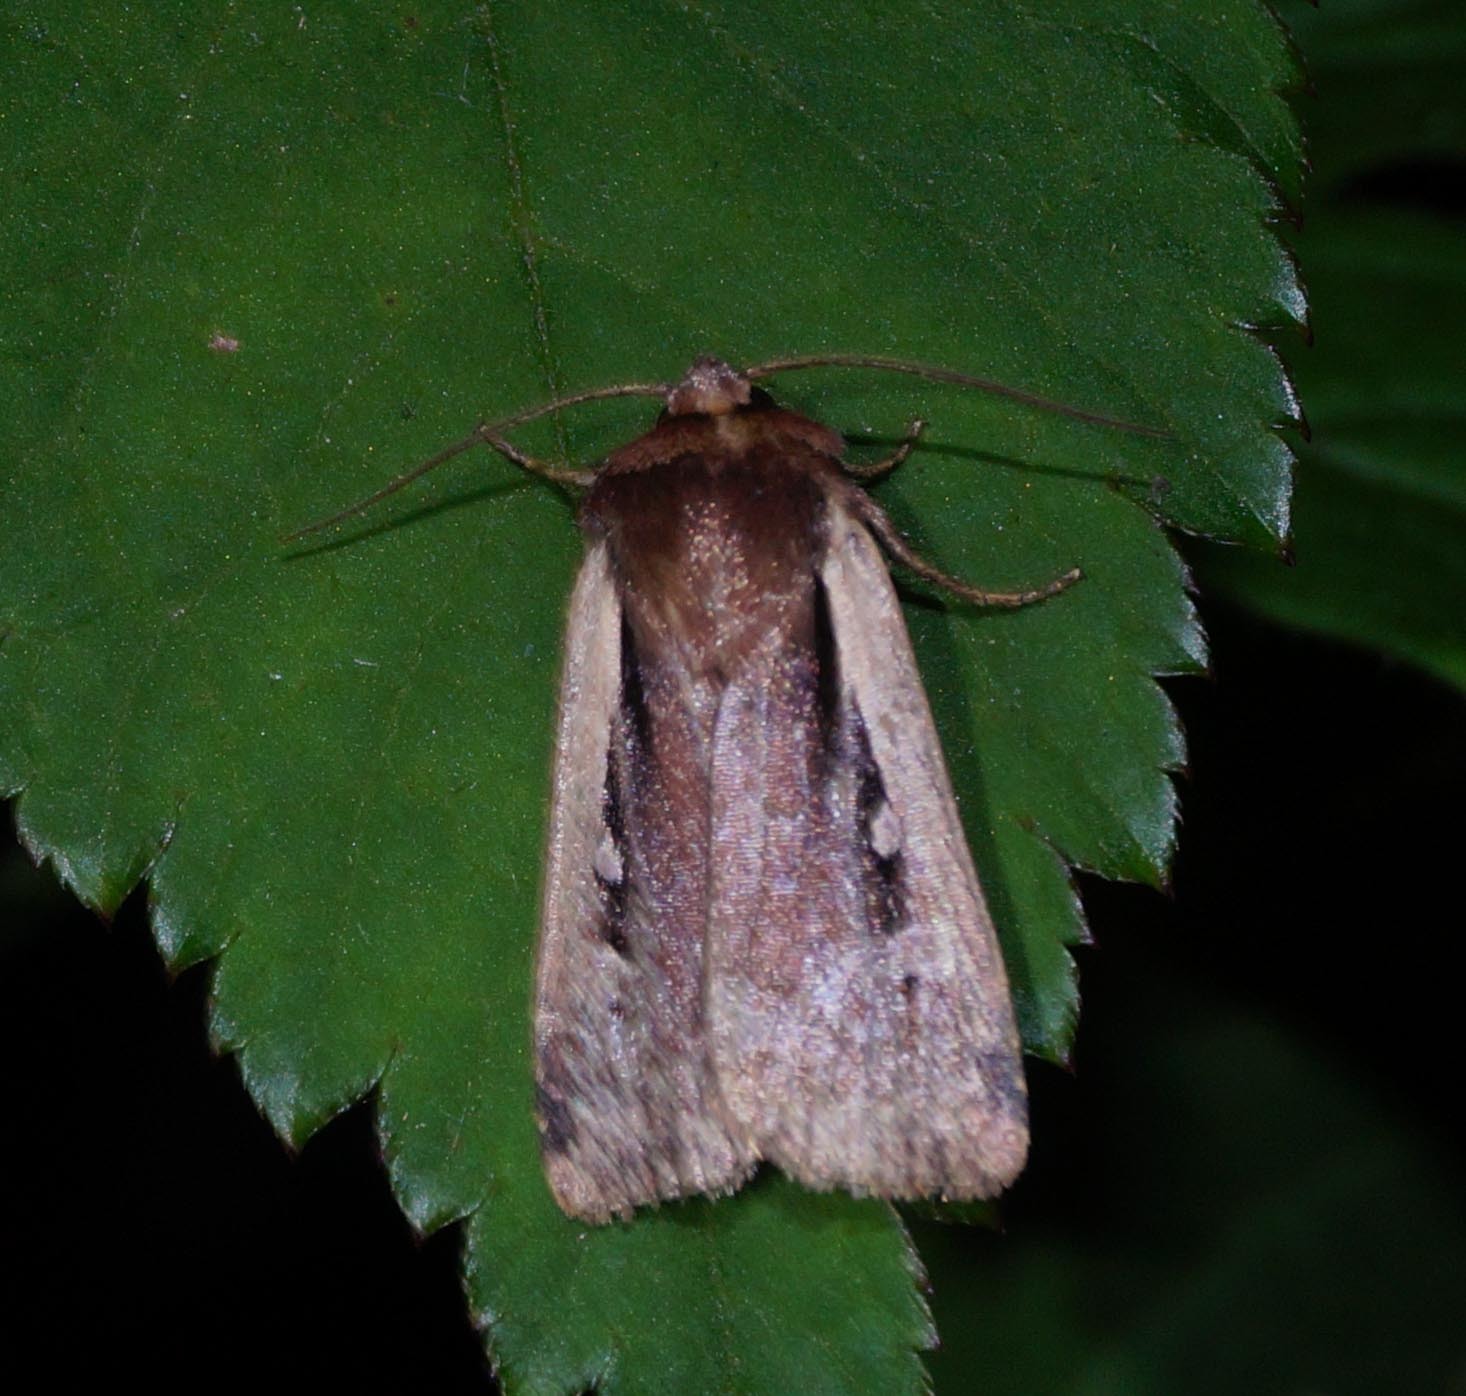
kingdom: Animalia
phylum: Arthropoda
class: Insecta
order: Lepidoptera
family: Noctuidae
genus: Ochropleura
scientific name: Ochropleura plecta
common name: Flame shoulder
